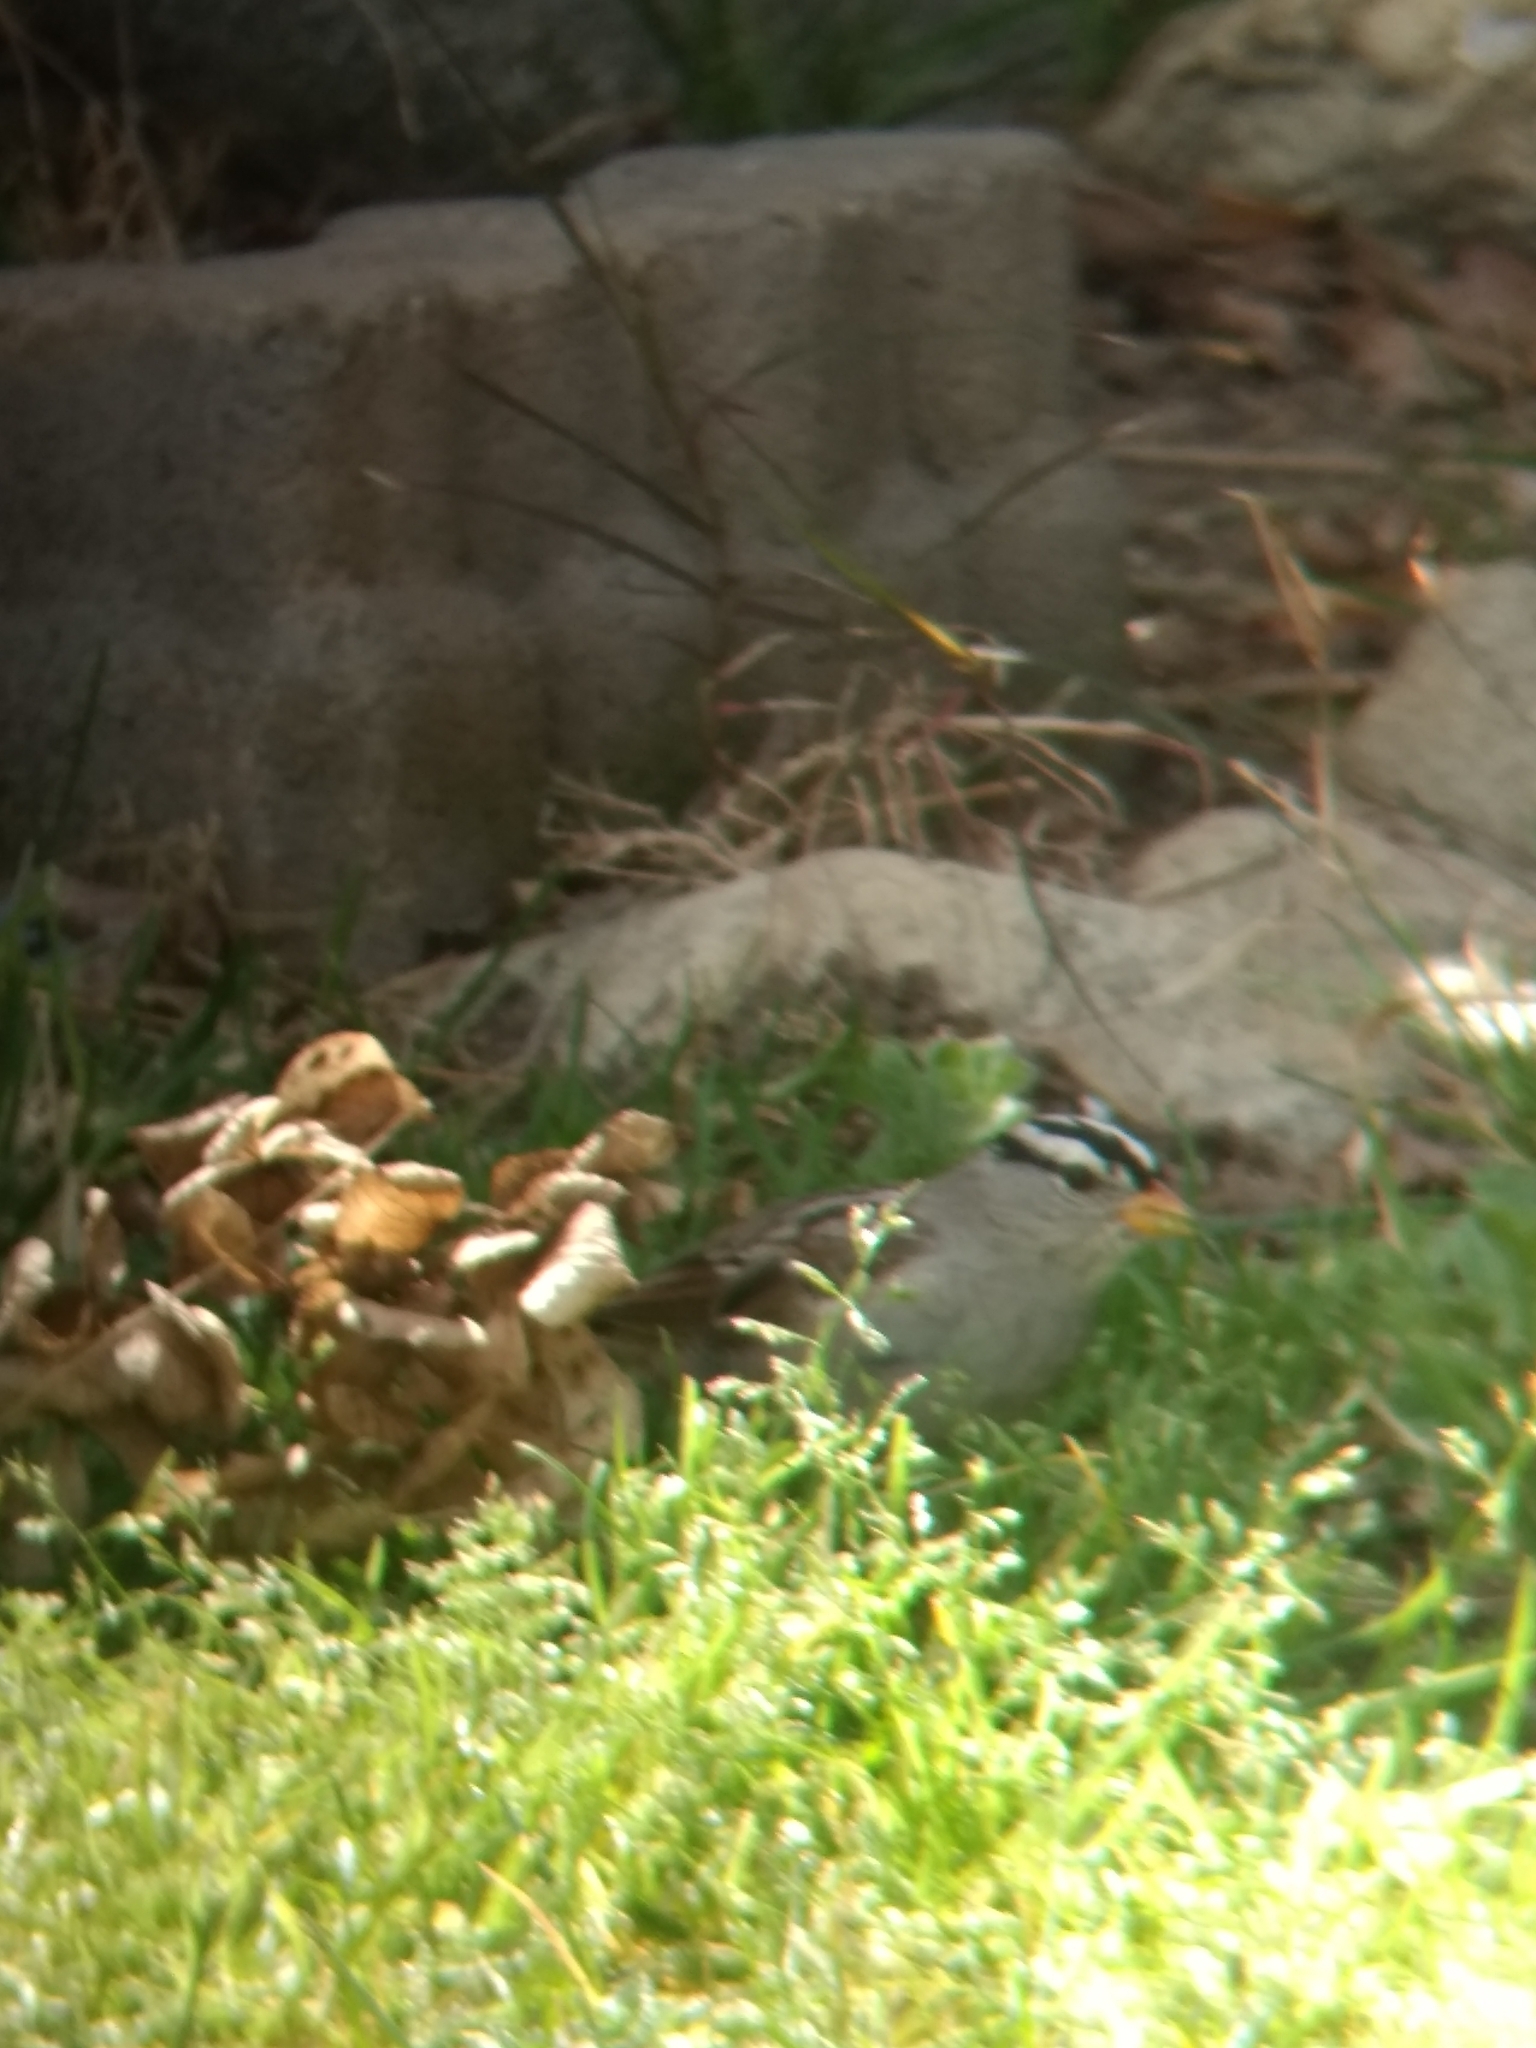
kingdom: Animalia
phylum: Chordata
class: Aves
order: Passeriformes
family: Passerellidae
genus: Zonotrichia
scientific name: Zonotrichia leucophrys
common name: White-crowned sparrow
